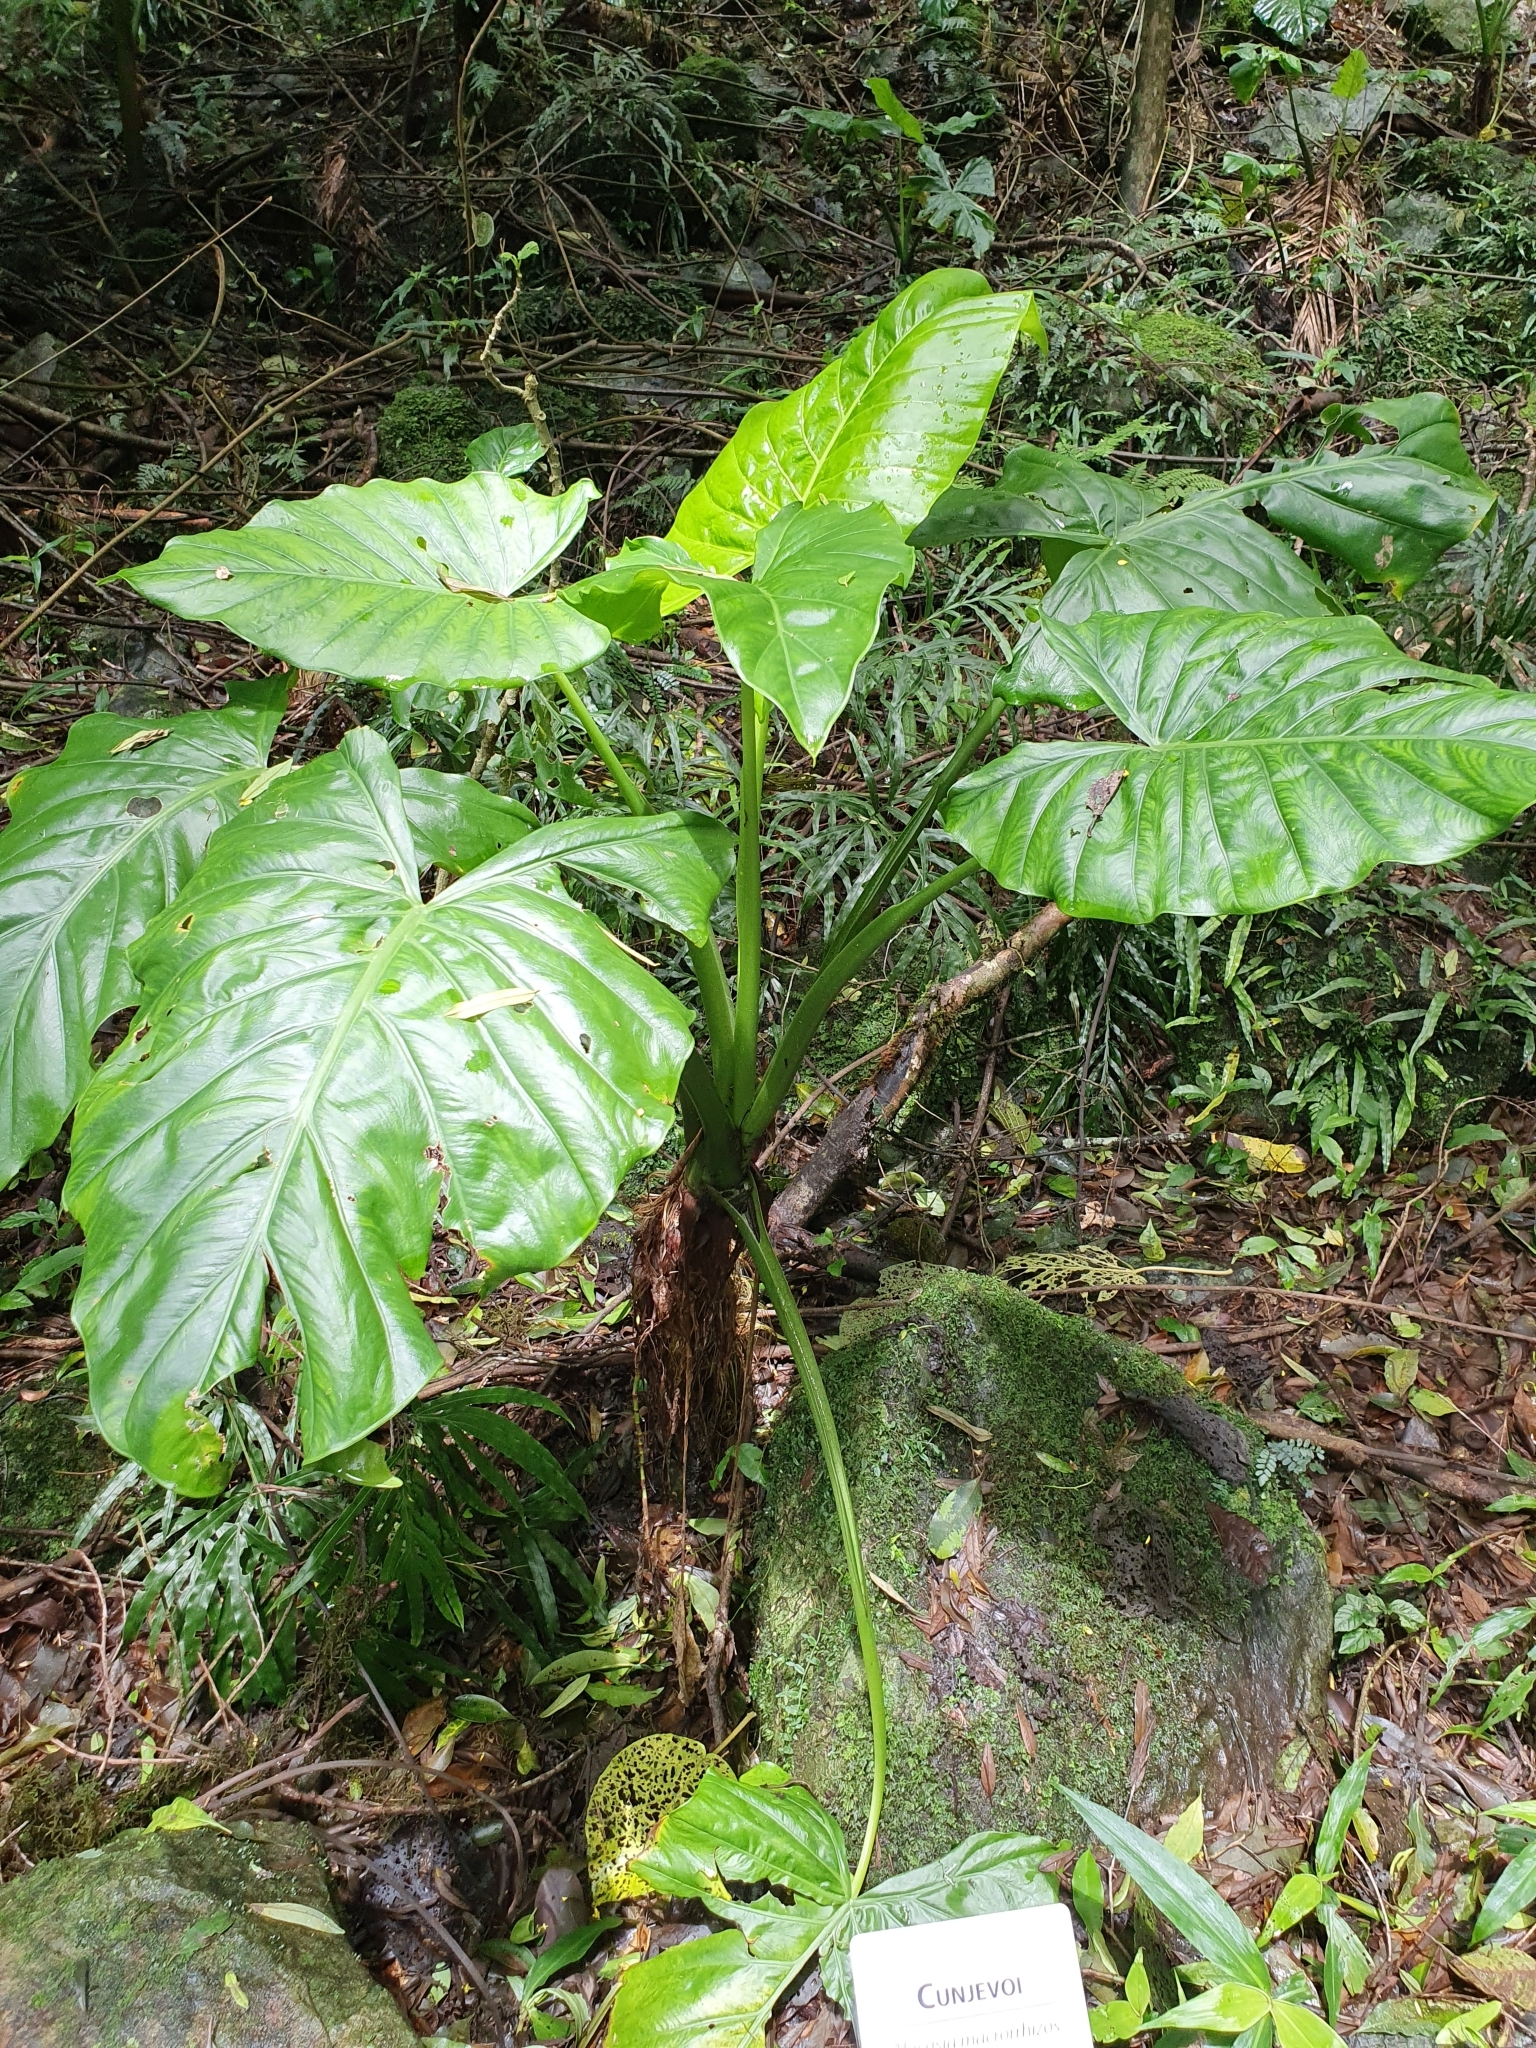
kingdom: Plantae
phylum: Tracheophyta
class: Liliopsida
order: Alismatales
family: Araceae
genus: Alocasia
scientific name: Alocasia brisbanensis
